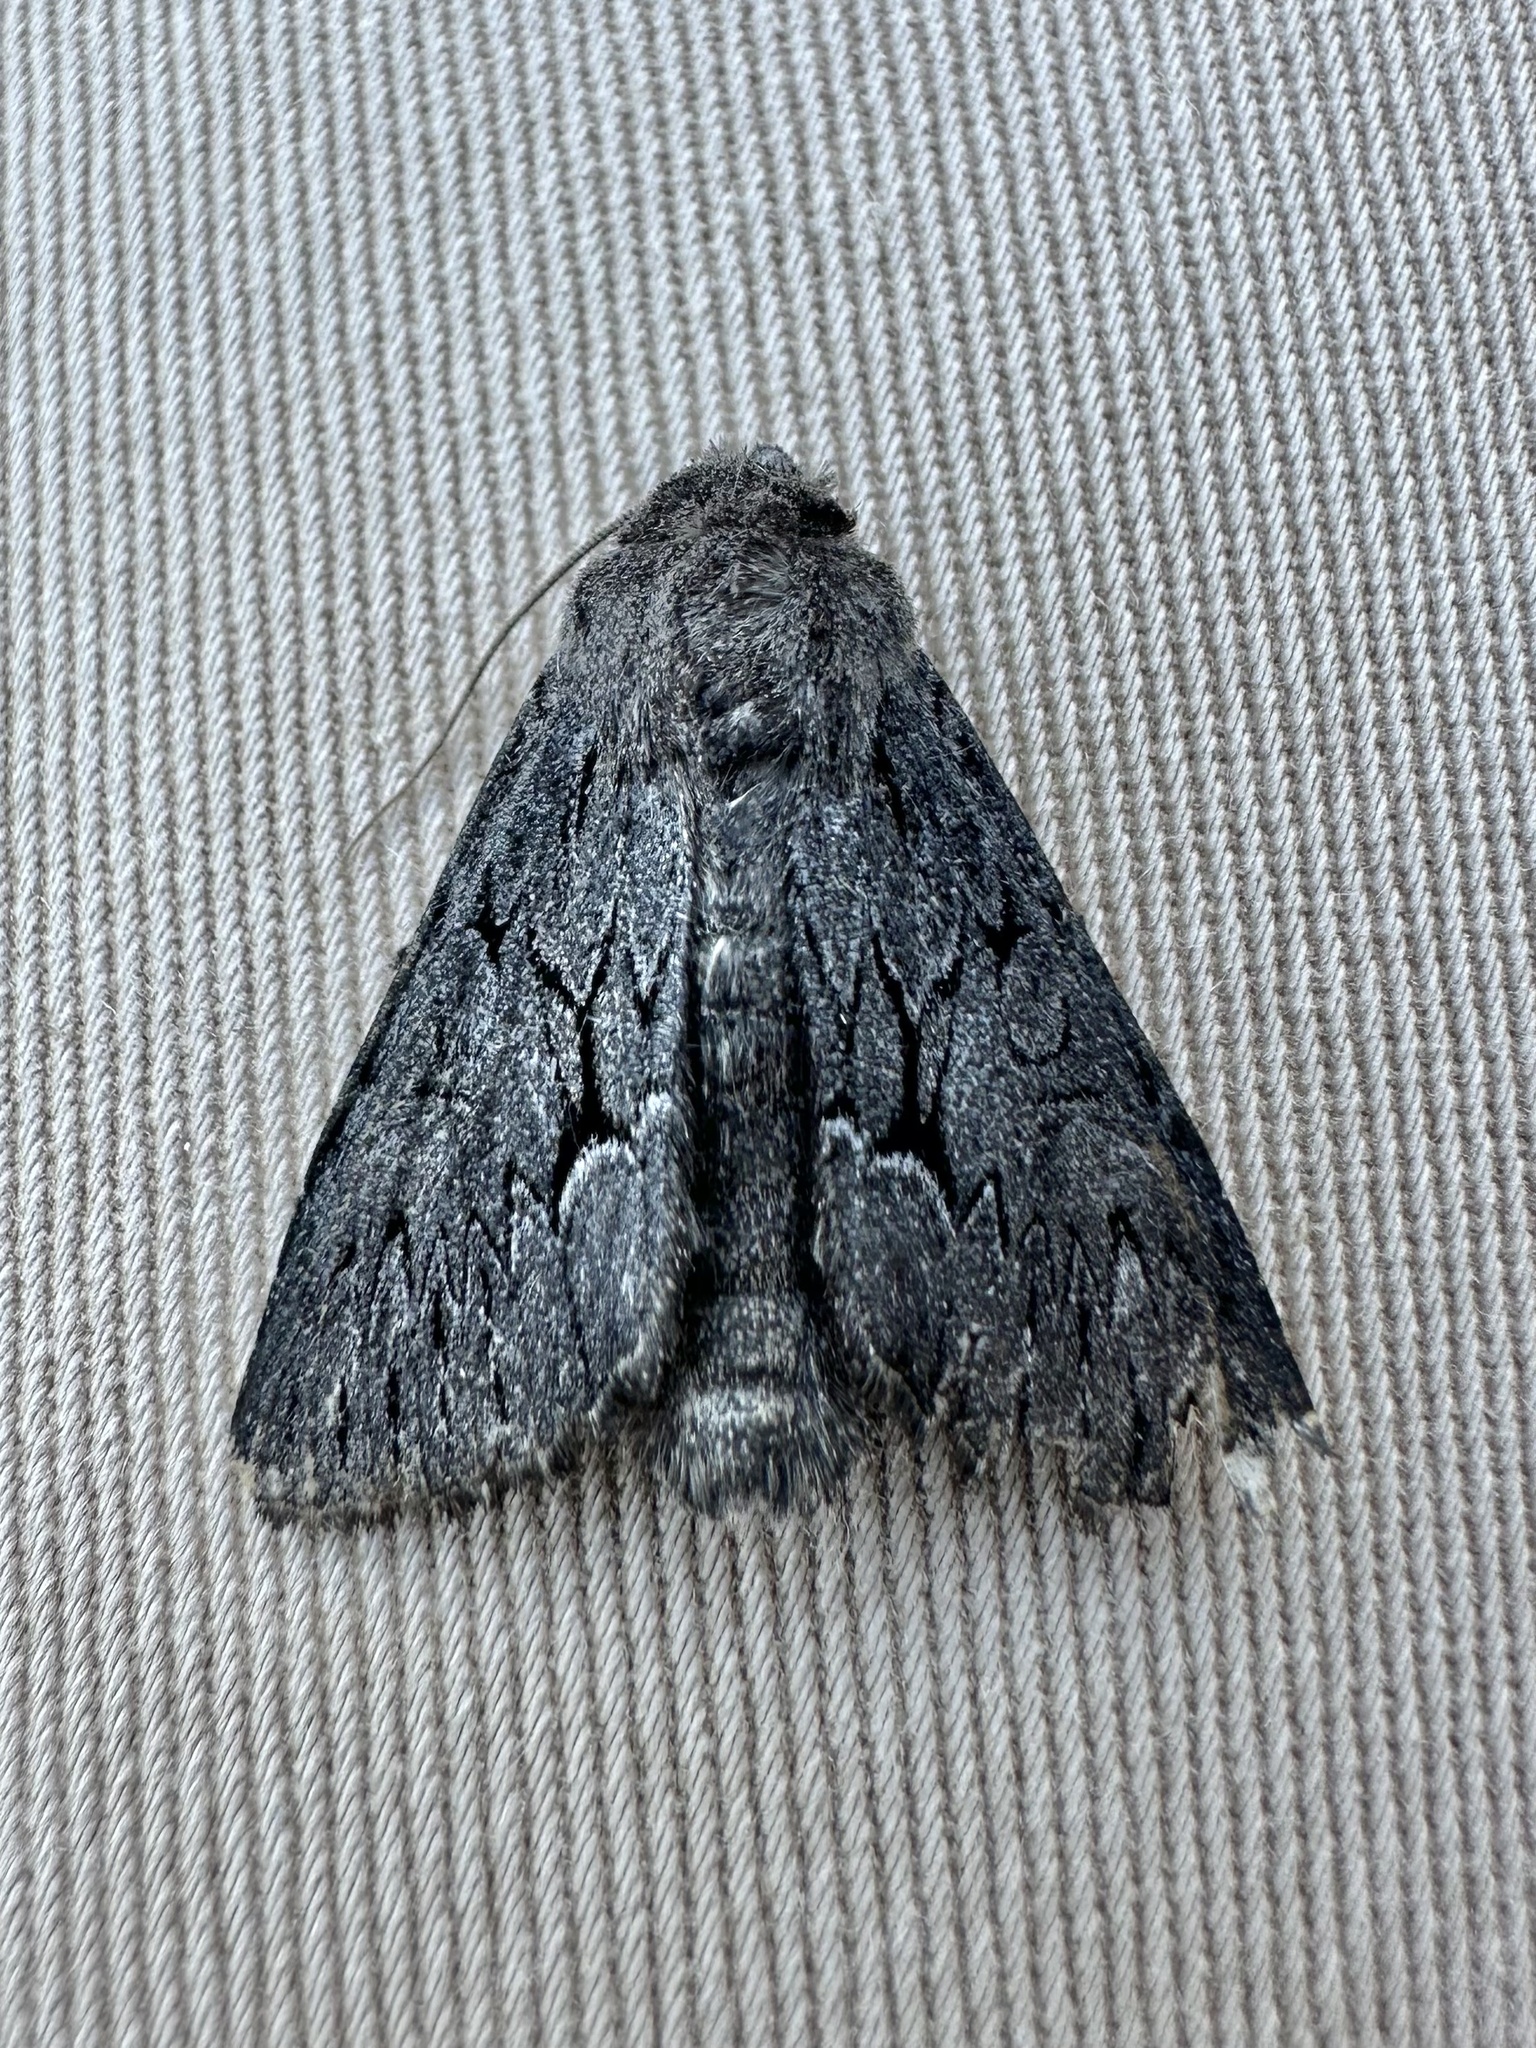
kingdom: Animalia
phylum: Arthropoda
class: Insecta
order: Lepidoptera
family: Noctuidae
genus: Fishia
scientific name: Fishia yosemitae
